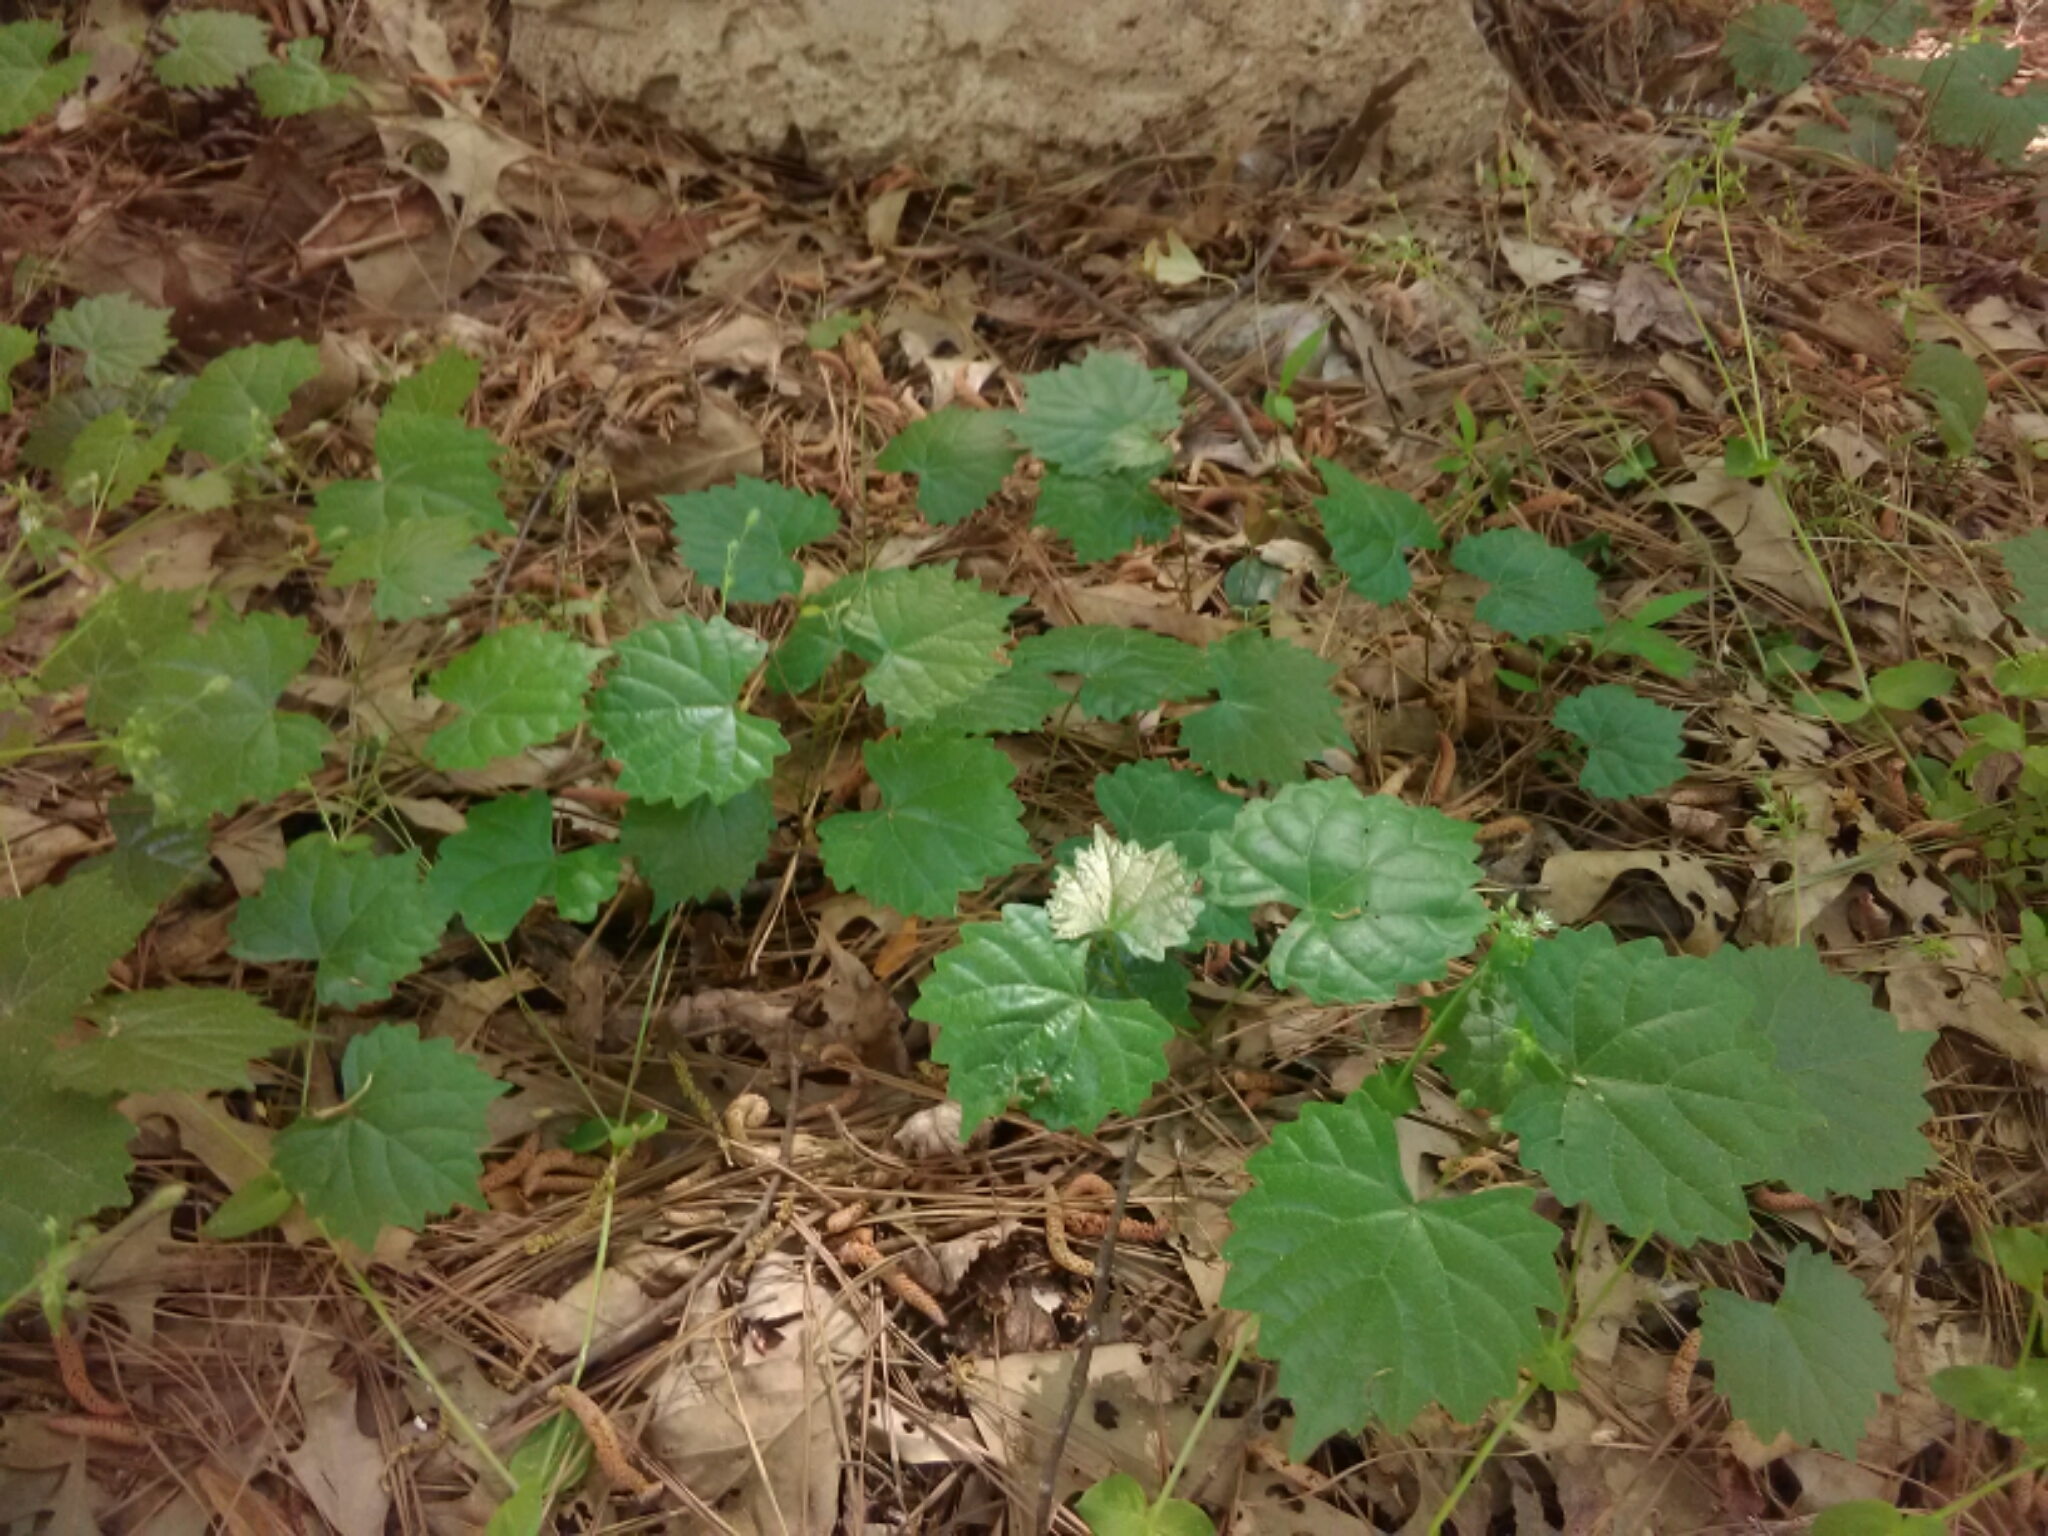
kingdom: Plantae
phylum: Tracheophyta
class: Magnoliopsida
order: Vitales
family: Vitaceae
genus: Vitis
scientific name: Vitis rotundifolia
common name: Muscadine grape
